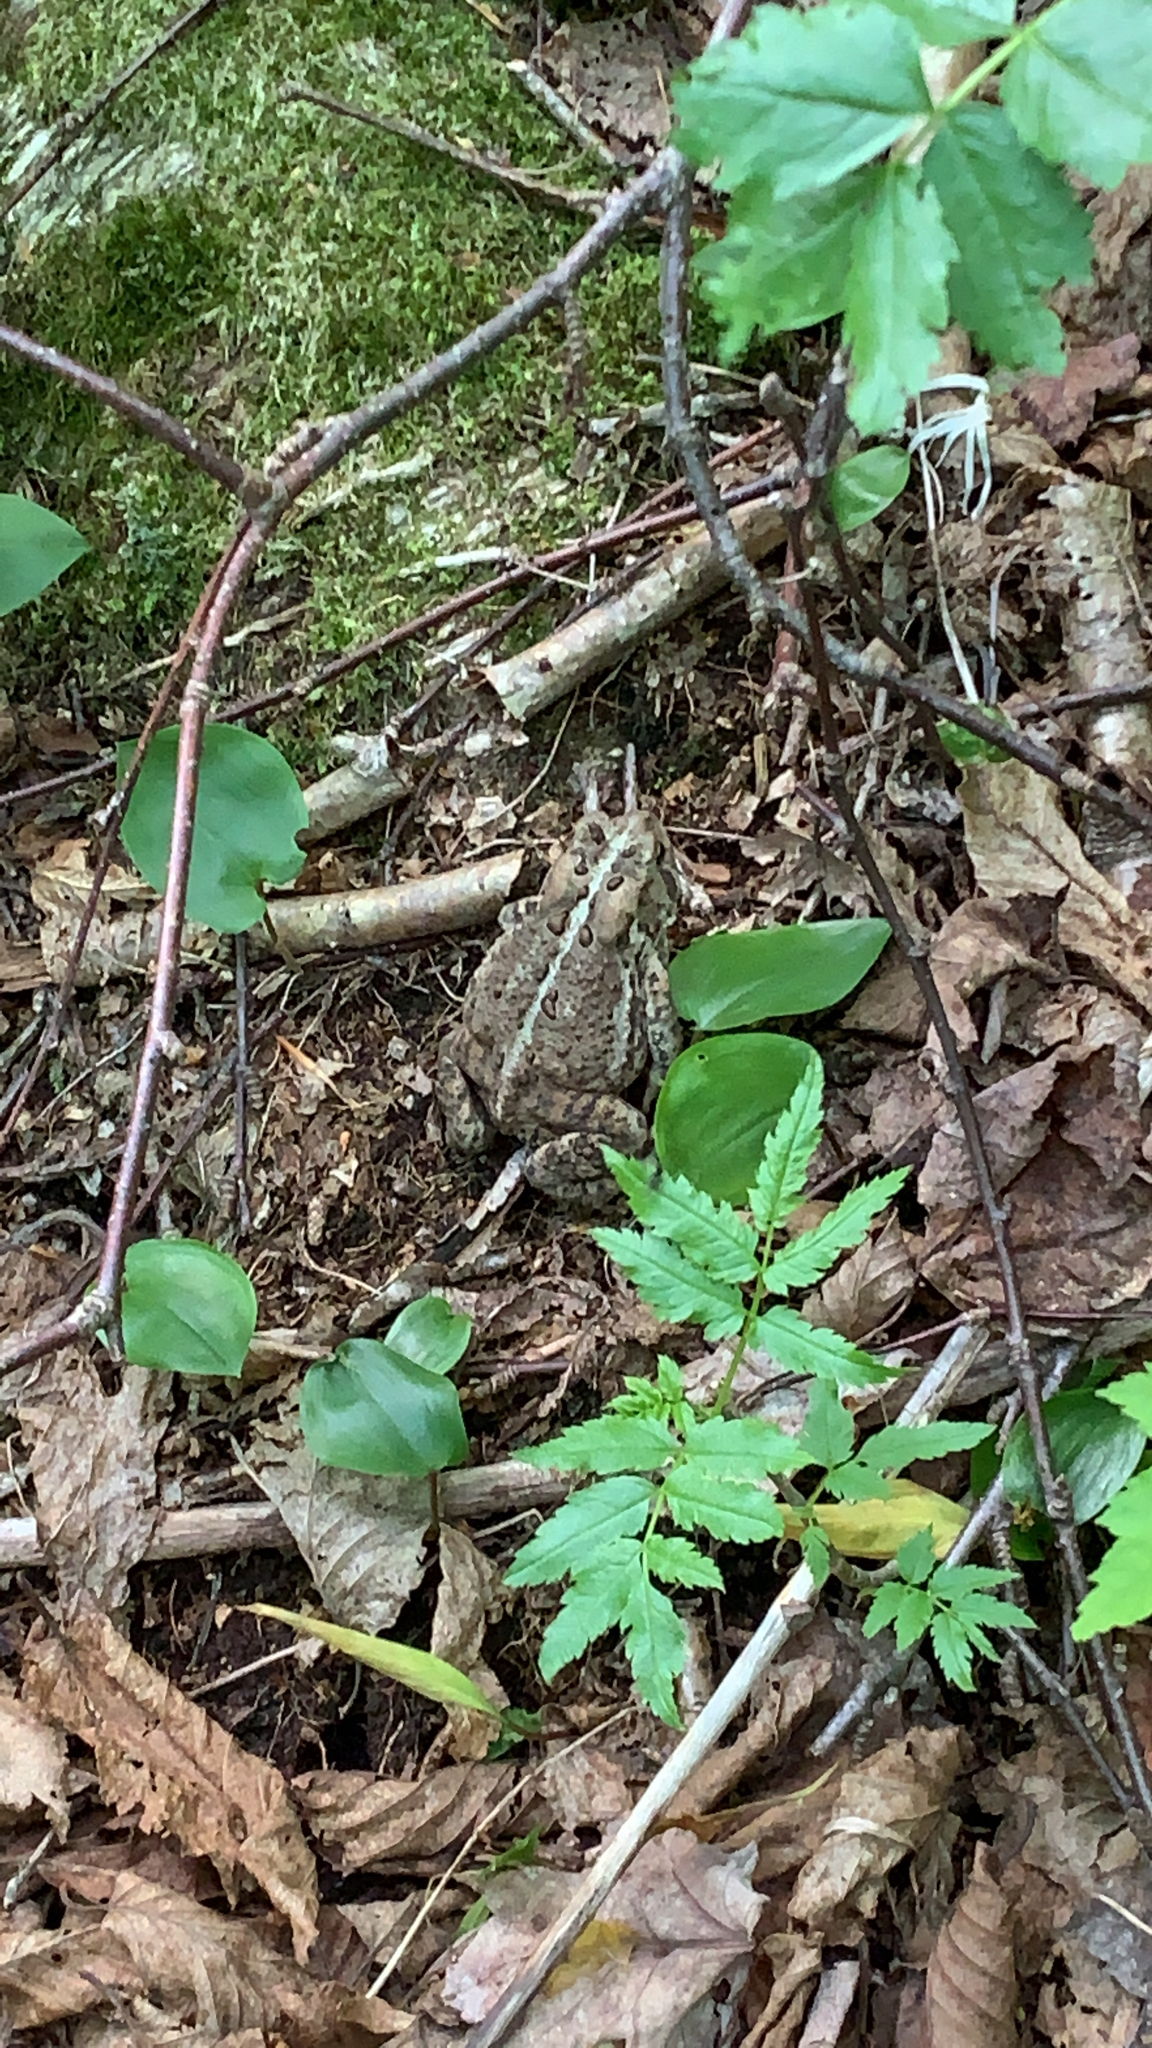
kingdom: Animalia
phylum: Chordata
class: Amphibia
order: Anura
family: Bufonidae
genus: Anaxyrus
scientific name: Anaxyrus americanus
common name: American toad
